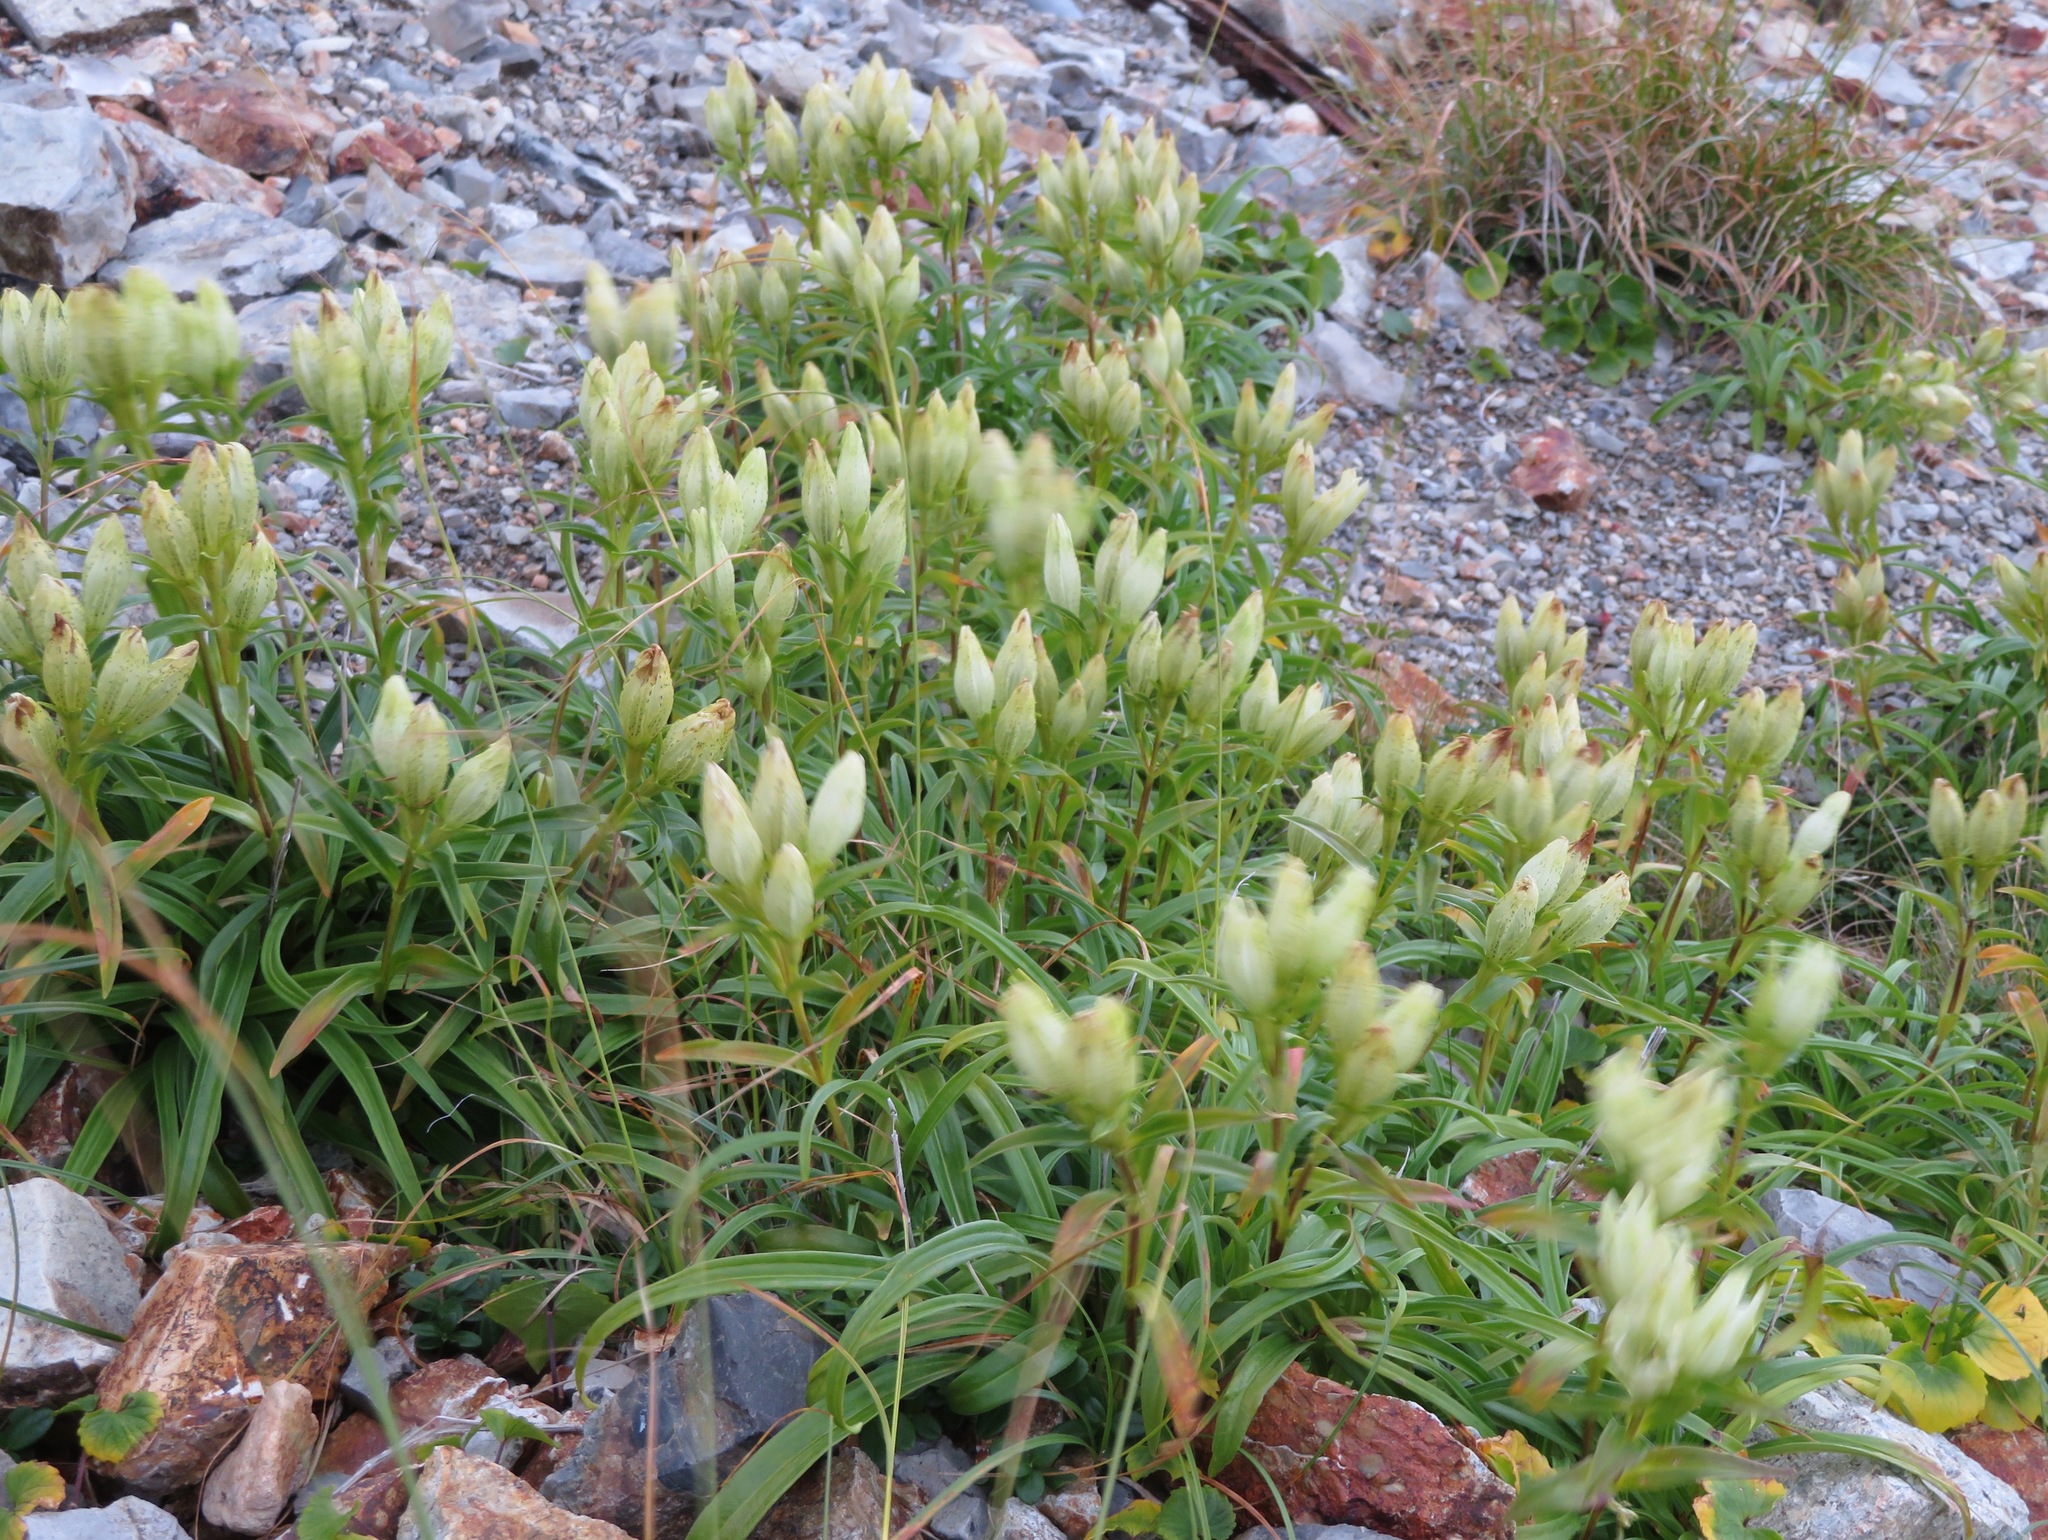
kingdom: Plantae
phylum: Tracheophyta
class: Magnoliopsida
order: Gentianales
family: Gentianaceae
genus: Gentiana
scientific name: Gentiana algida
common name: Arctic gentian
